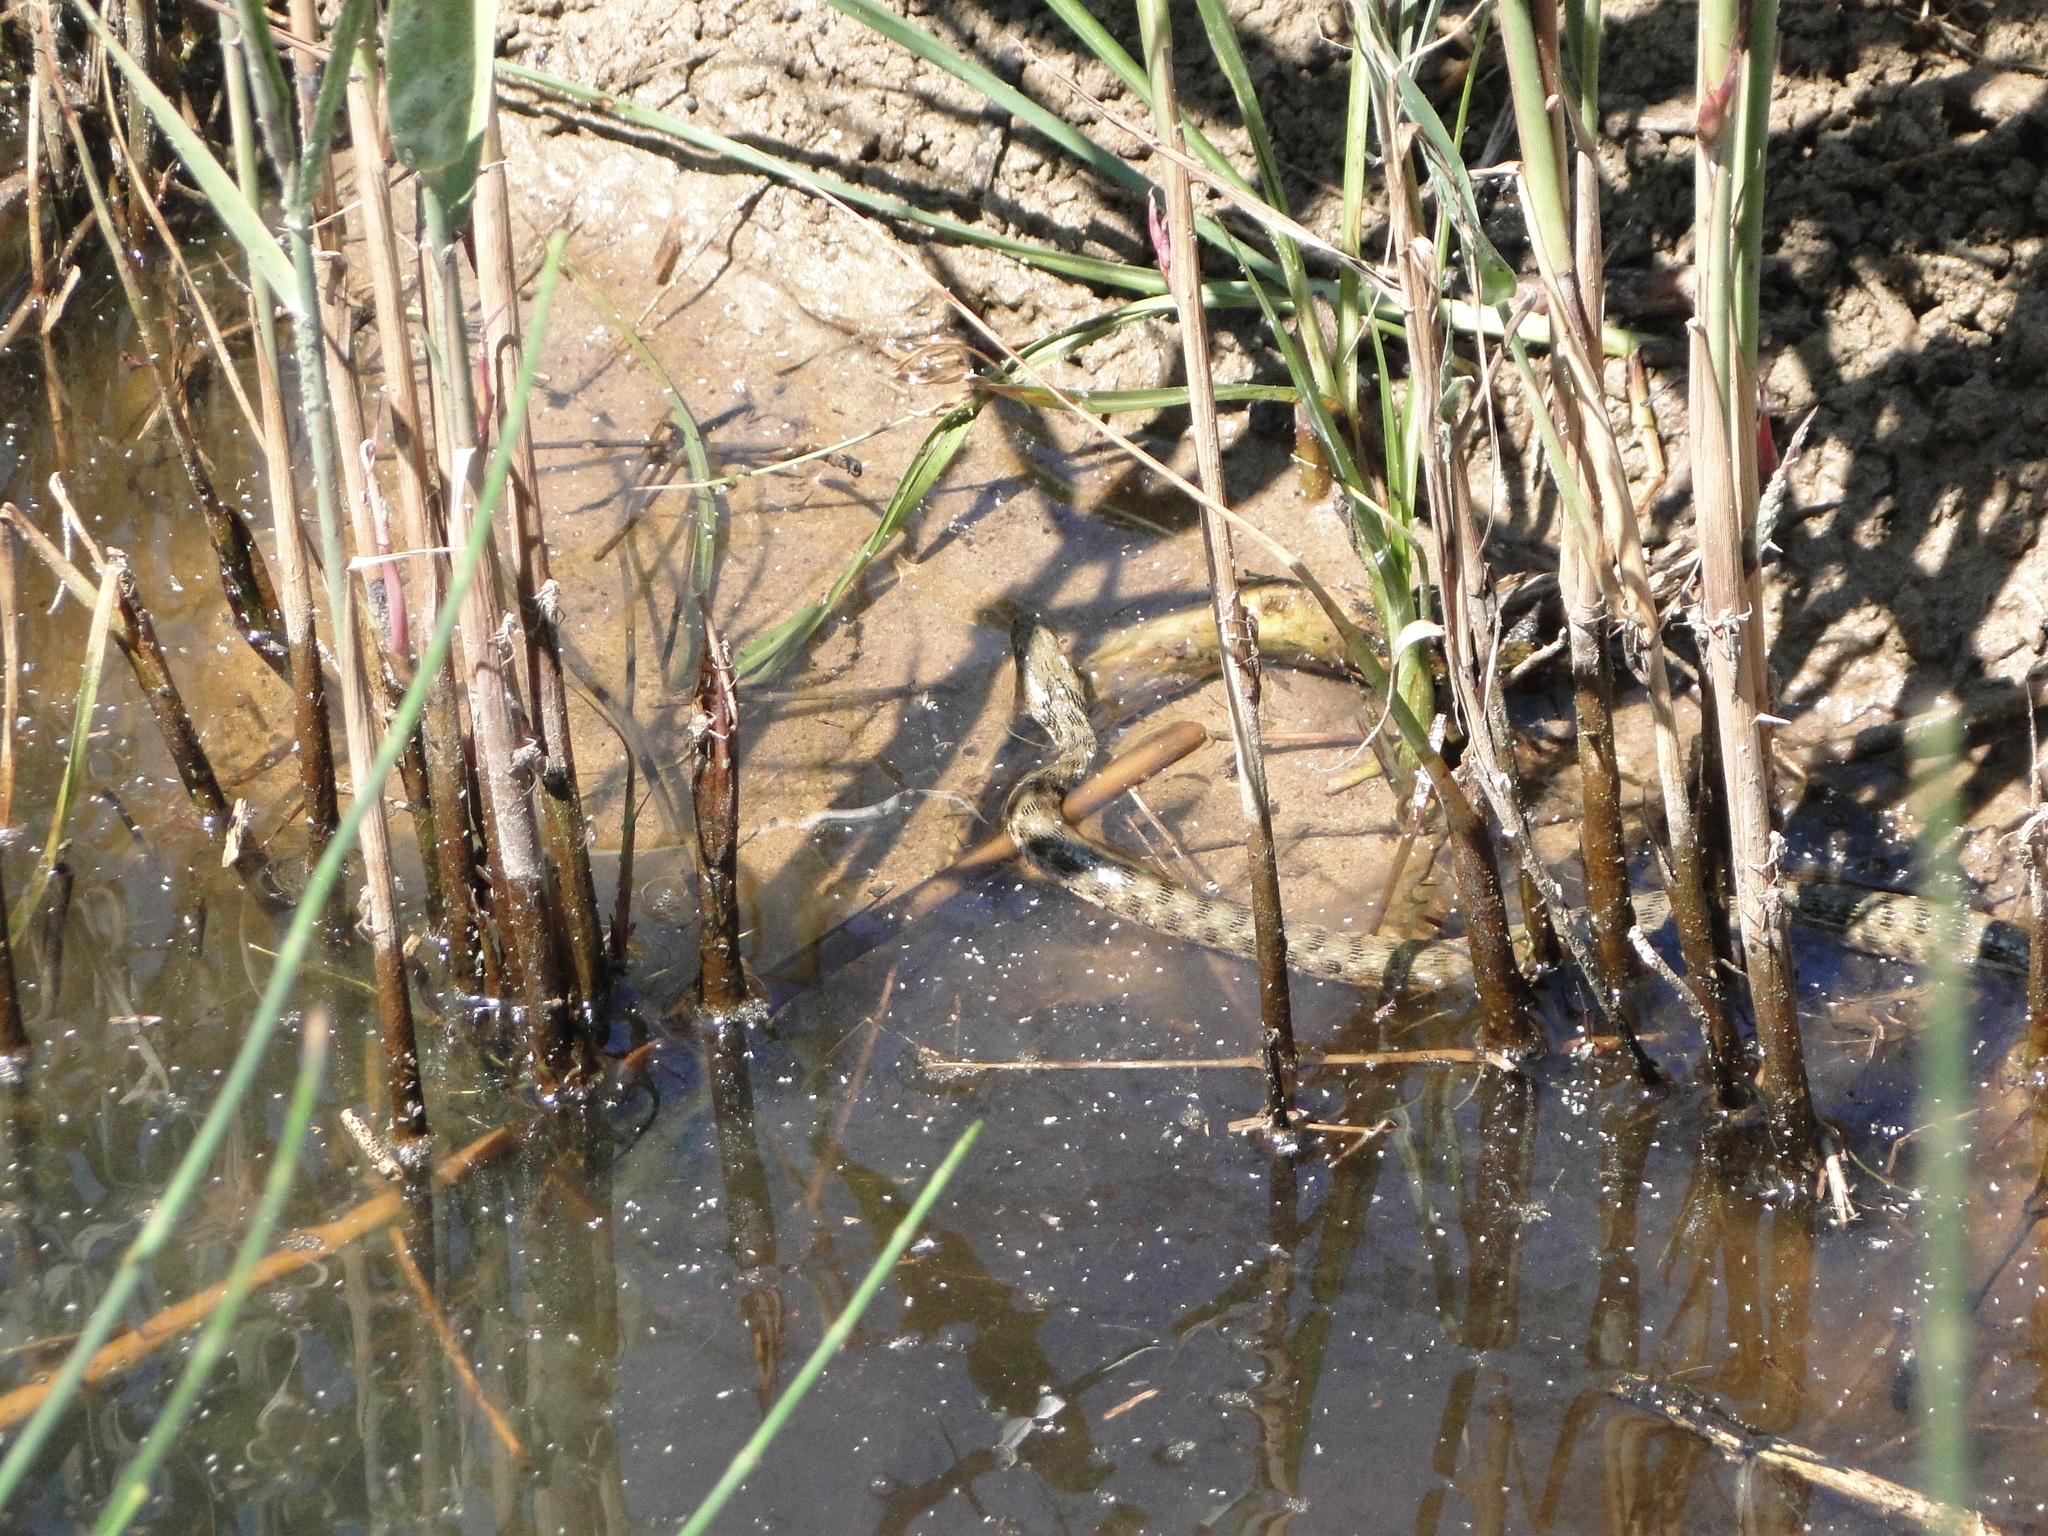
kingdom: Animalia
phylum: Chordata
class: Squamata
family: Colubridae
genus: Natrix
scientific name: Natrix tessellata
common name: Dice snake
